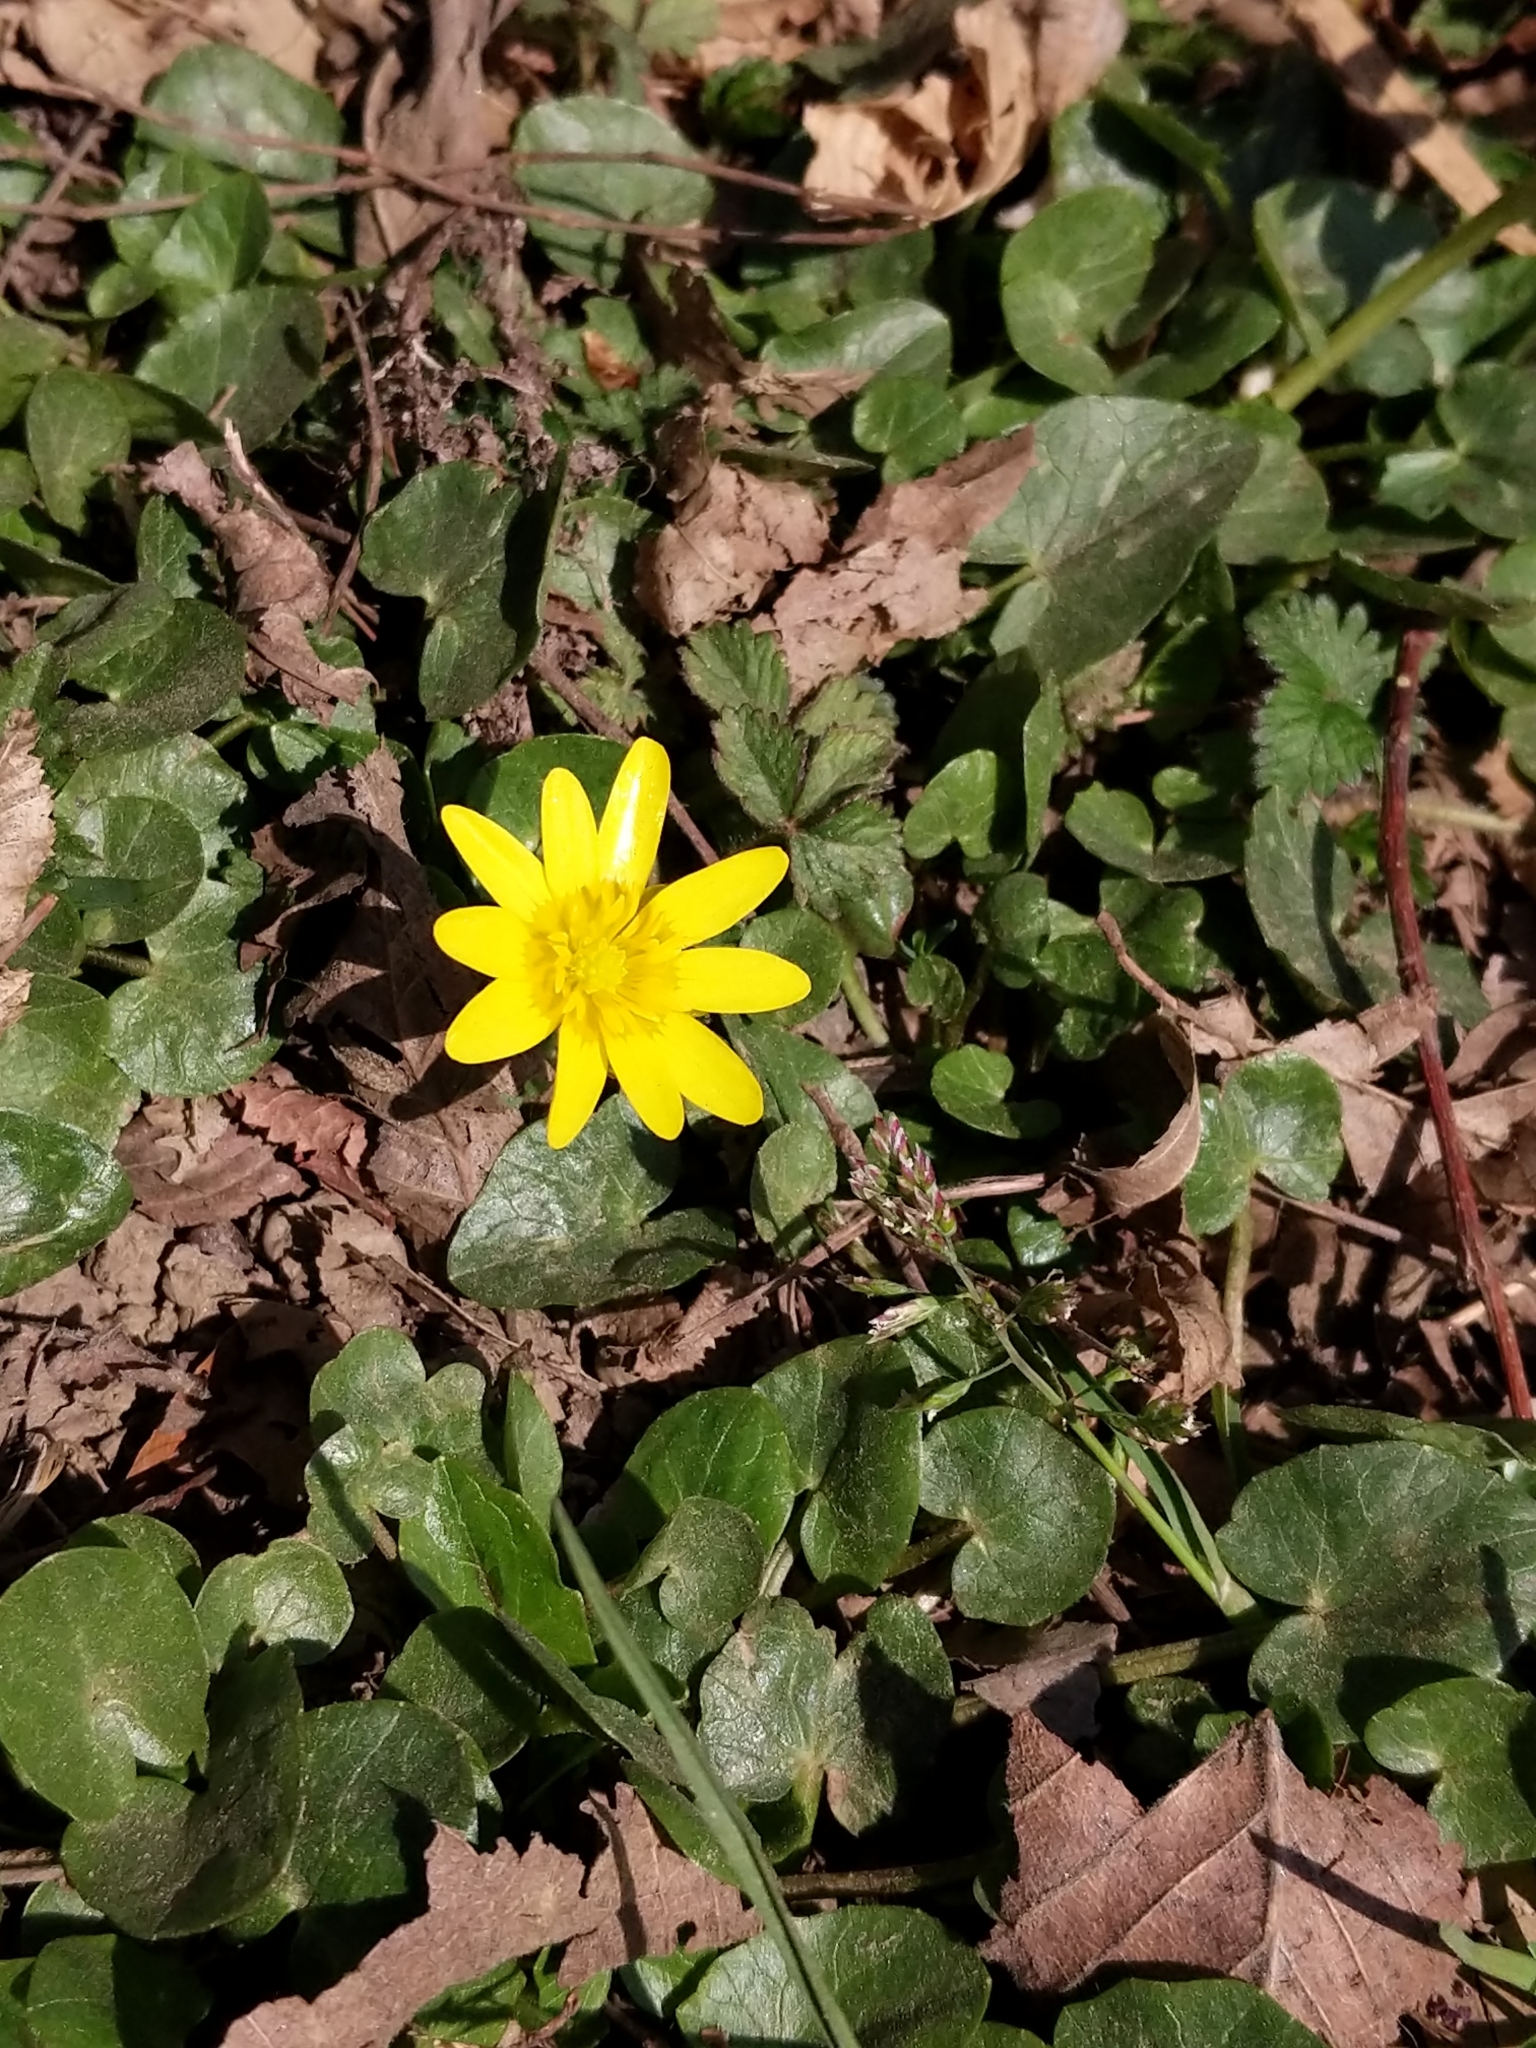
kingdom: Plantae
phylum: Tracheophyta
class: Magnoliopsida
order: Ranunculales
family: Ranunculaceae
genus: Ficaria
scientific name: Ficaria verna
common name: Lesser celandine
